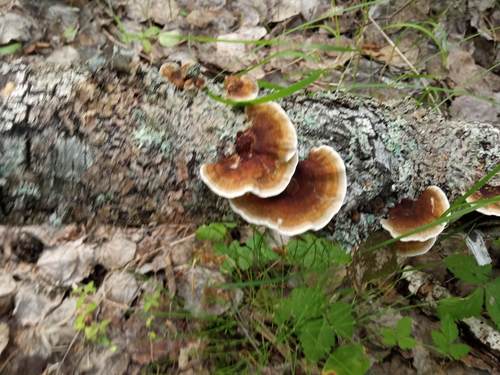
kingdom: Fungi
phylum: Basidiomycota
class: Agaricomycetes
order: Polyporales
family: Polyporaceae
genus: Daedaleopsis
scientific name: Daedaleopsis septentrionalis
